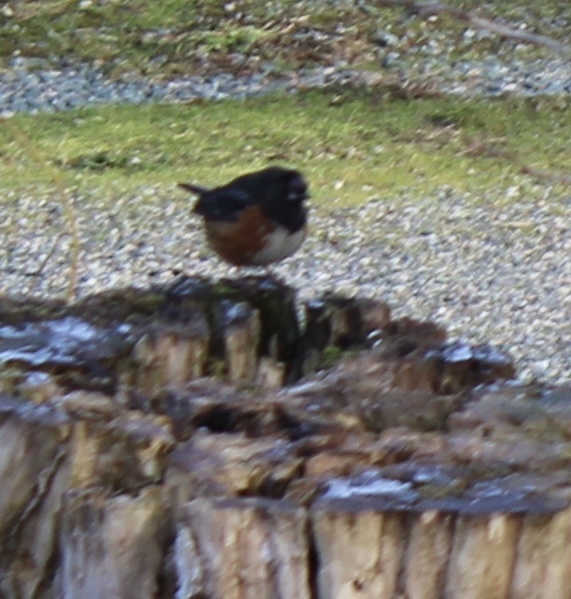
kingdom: Animalia
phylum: Chordata
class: Aves
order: Passeriformes
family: Passerellidae
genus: Pipilo
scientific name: Pipilo maculatus
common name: Spotted towhee
